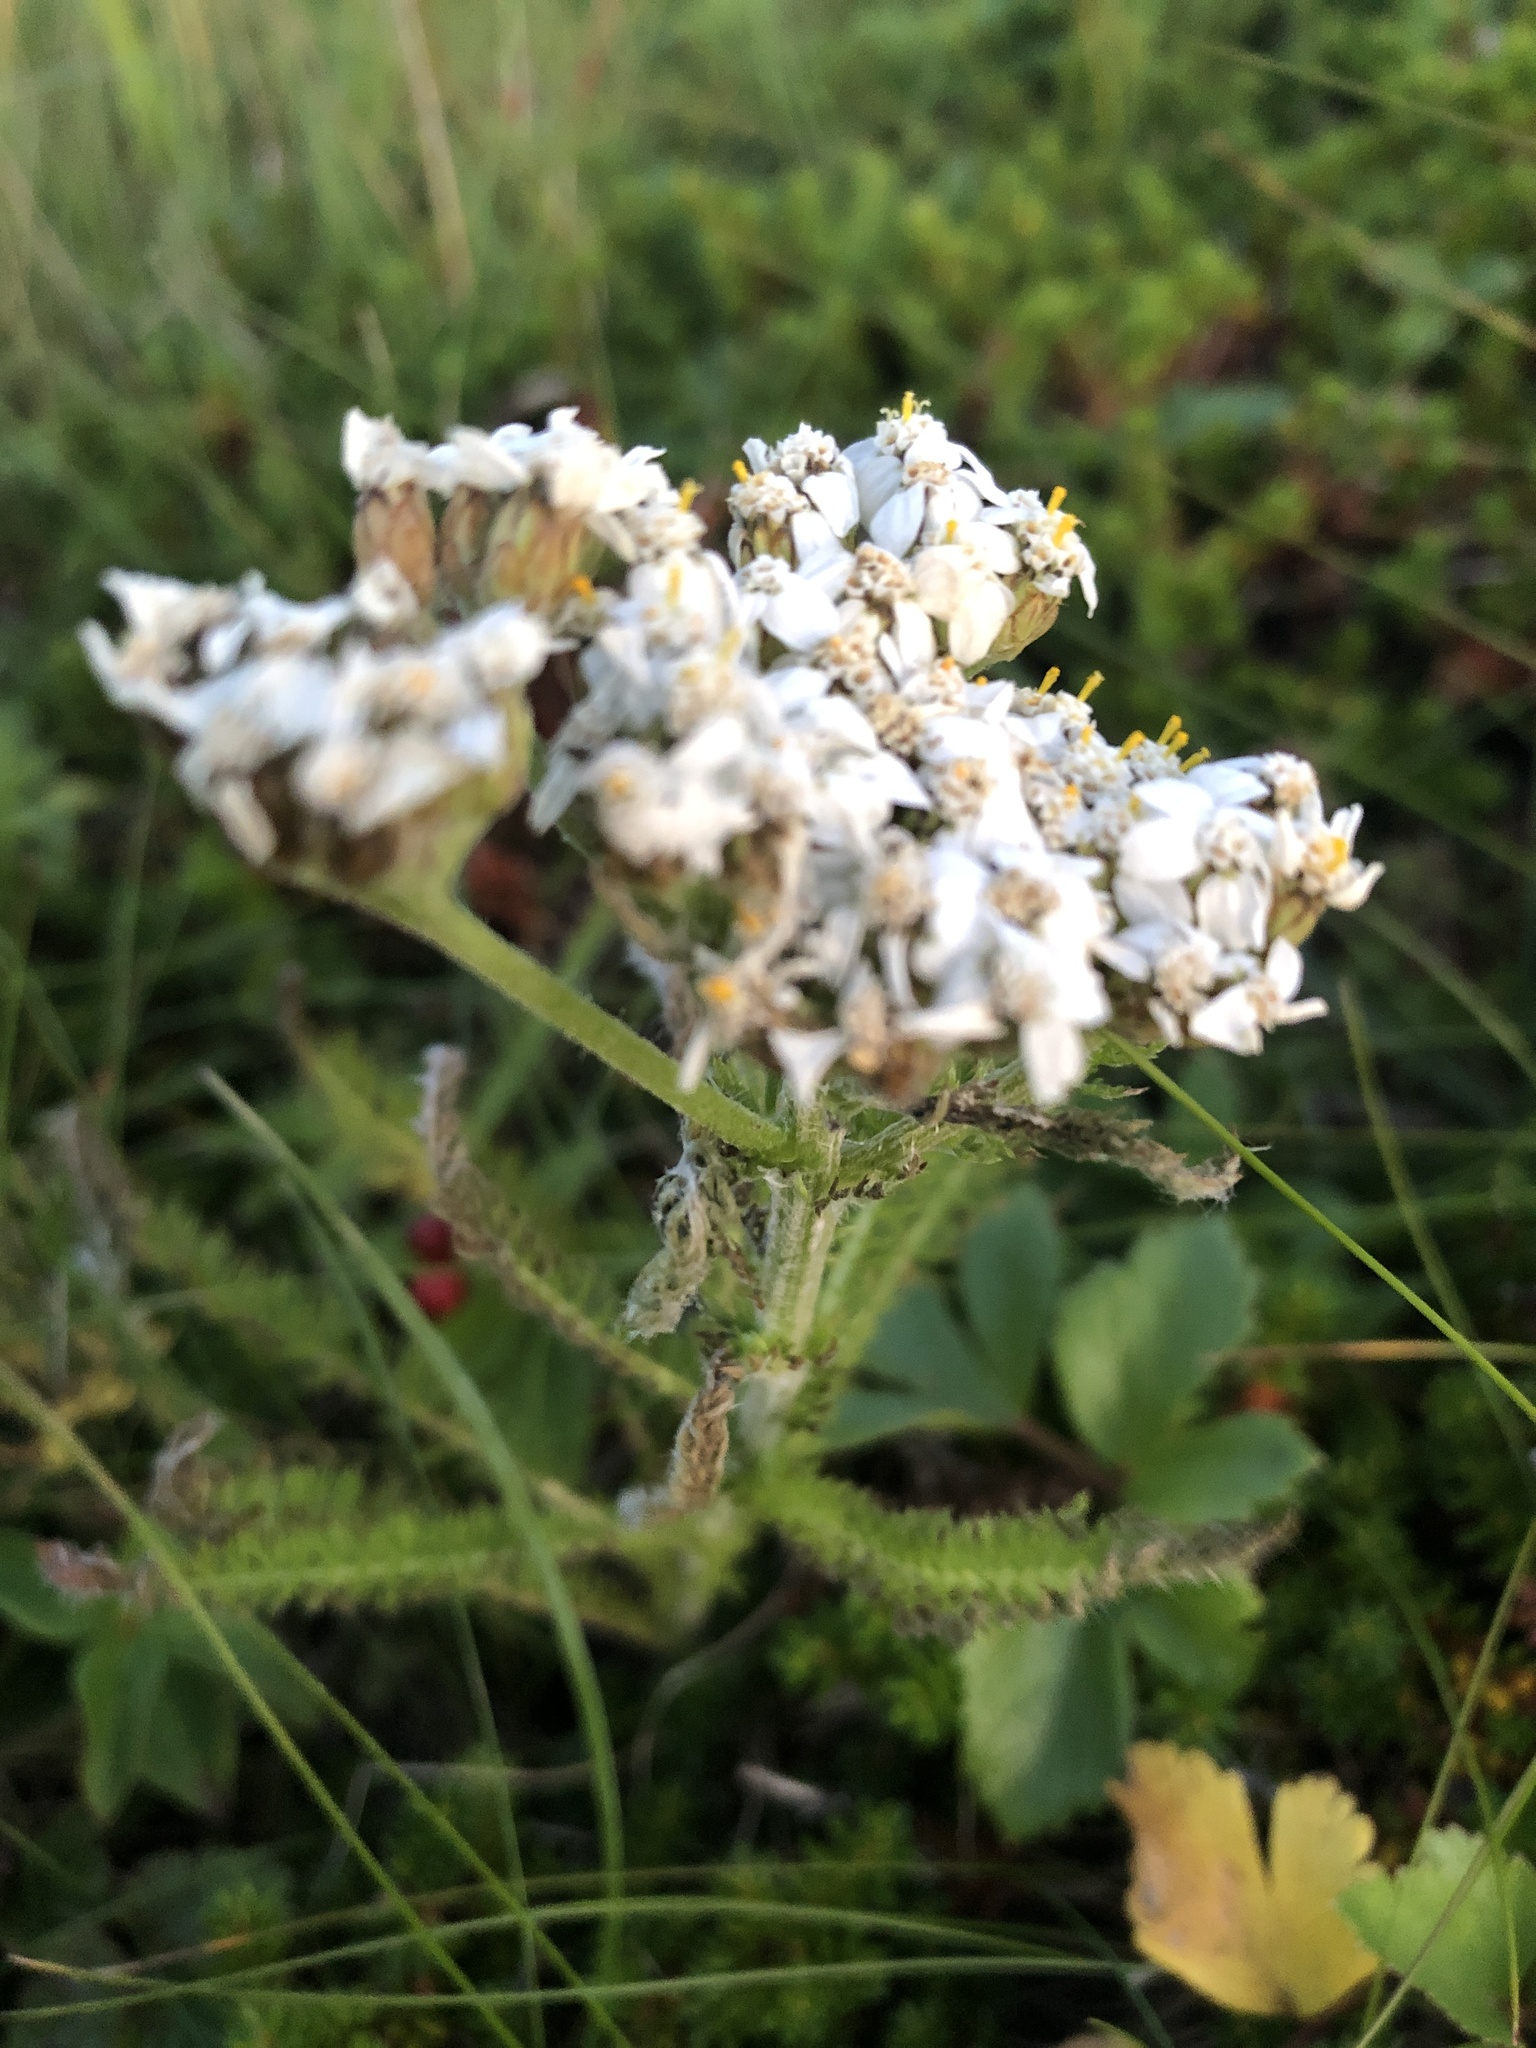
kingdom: Plantae
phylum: Tracheophyta
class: Magnoliopsida
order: Asterales
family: Asteraceae
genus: Achillea
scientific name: Achillea millefolium
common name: Yarrow
